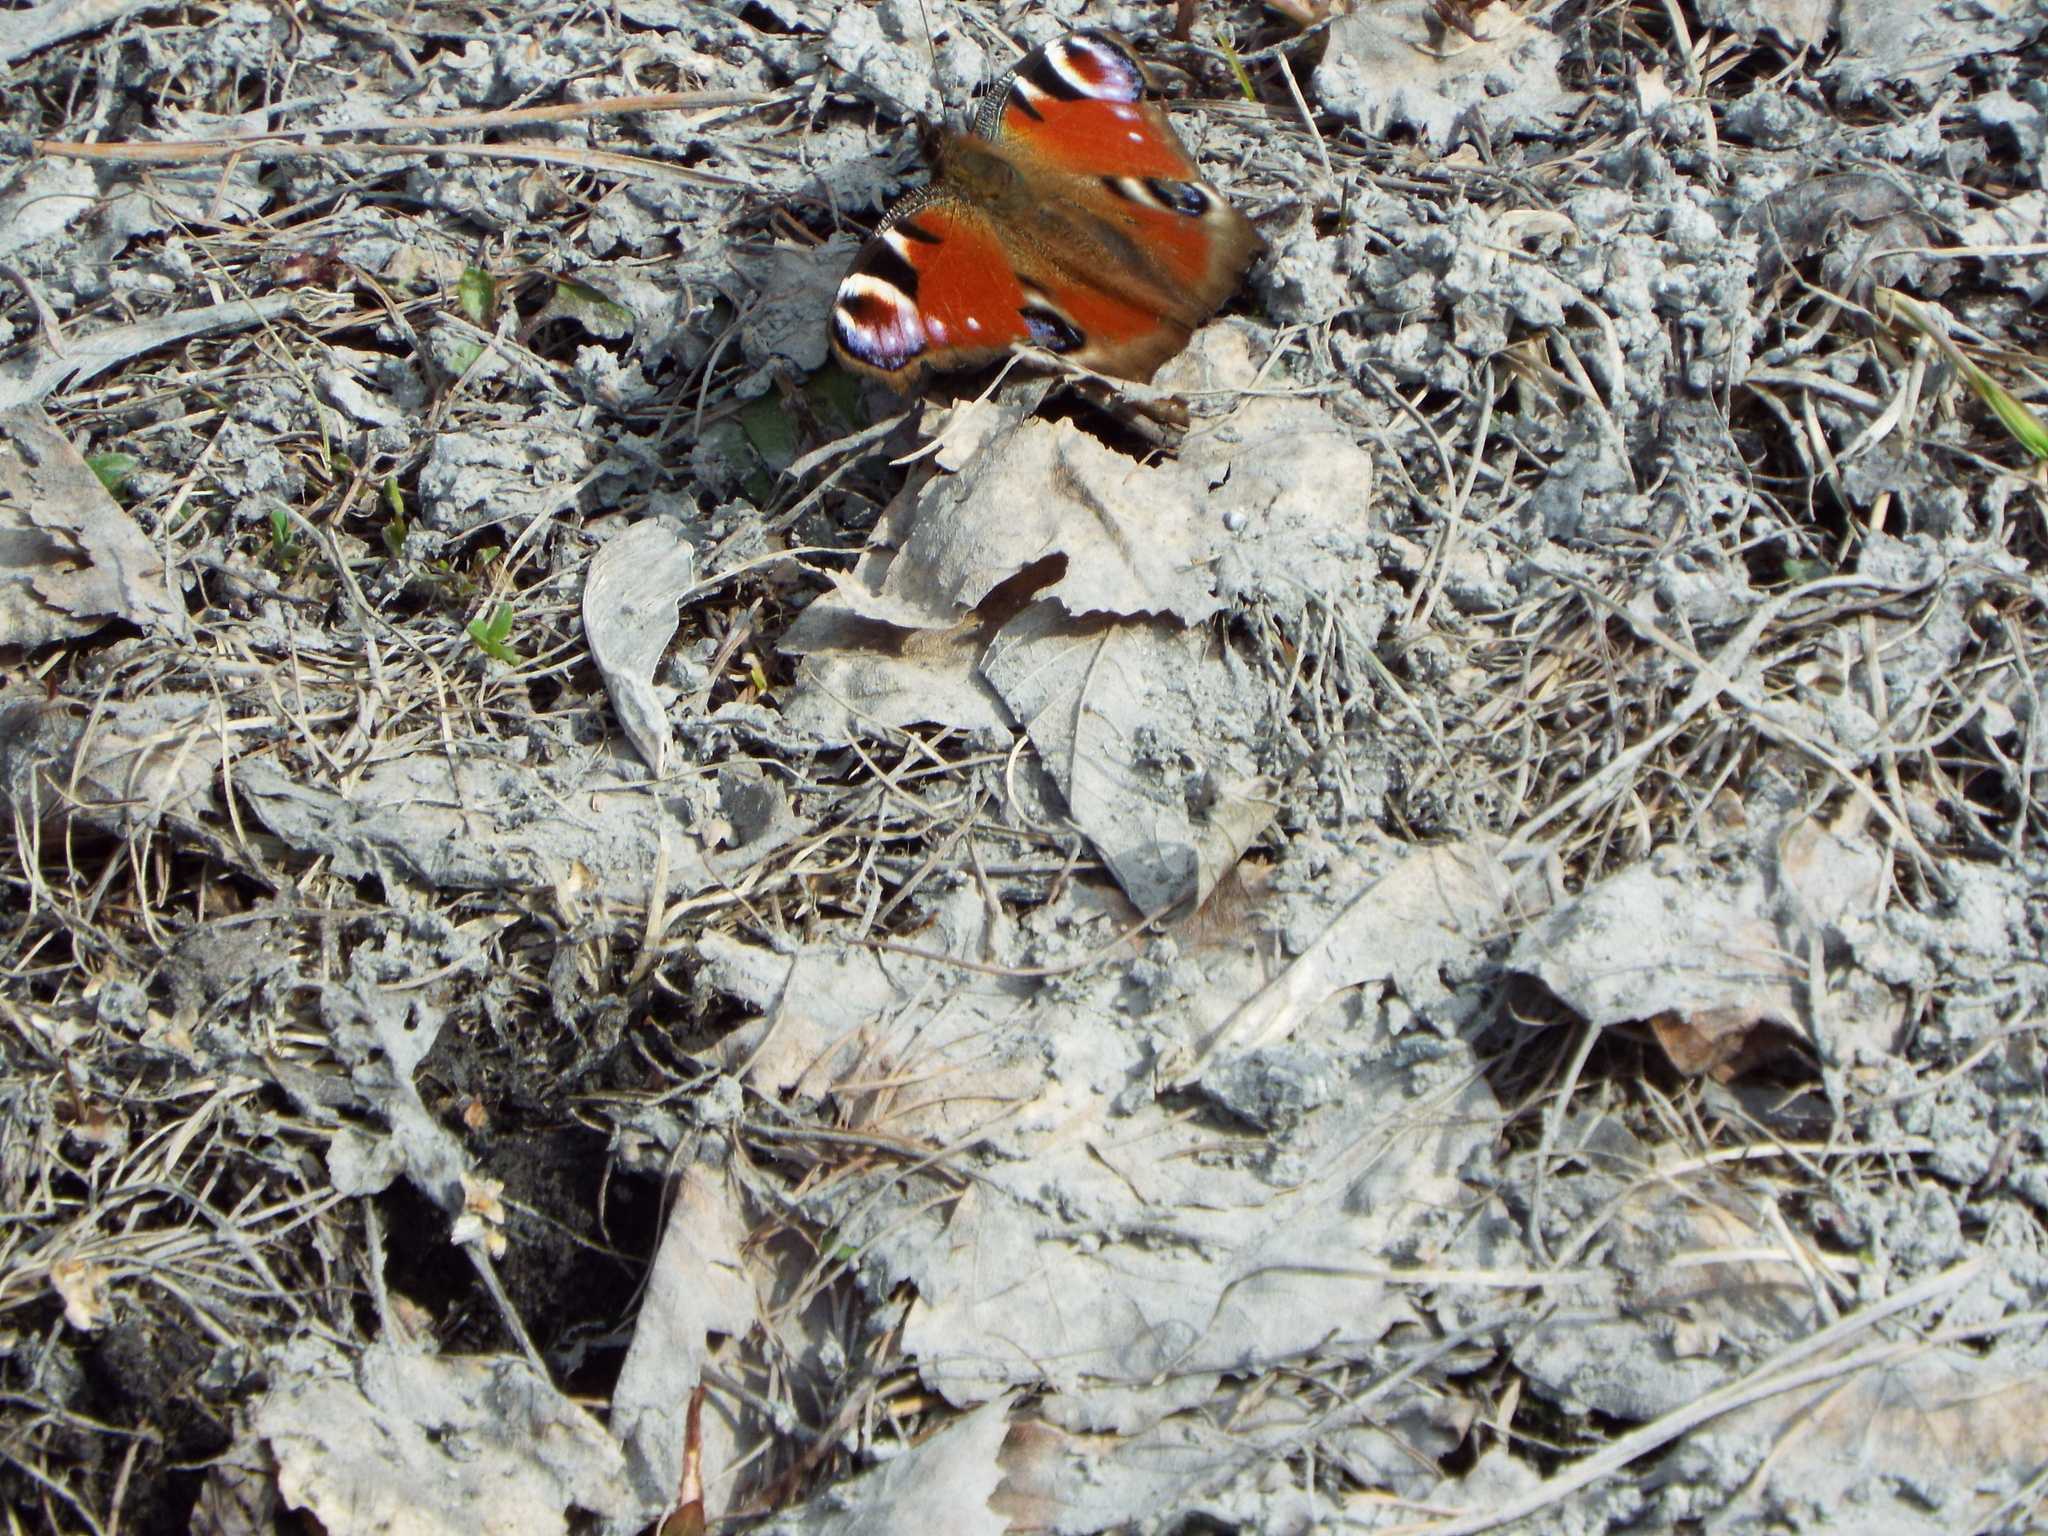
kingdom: Animalia
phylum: Arthropoda
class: Insecta
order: Lepidoptera
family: Nymphalidae
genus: Aglais
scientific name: Aglais io
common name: Peacock
